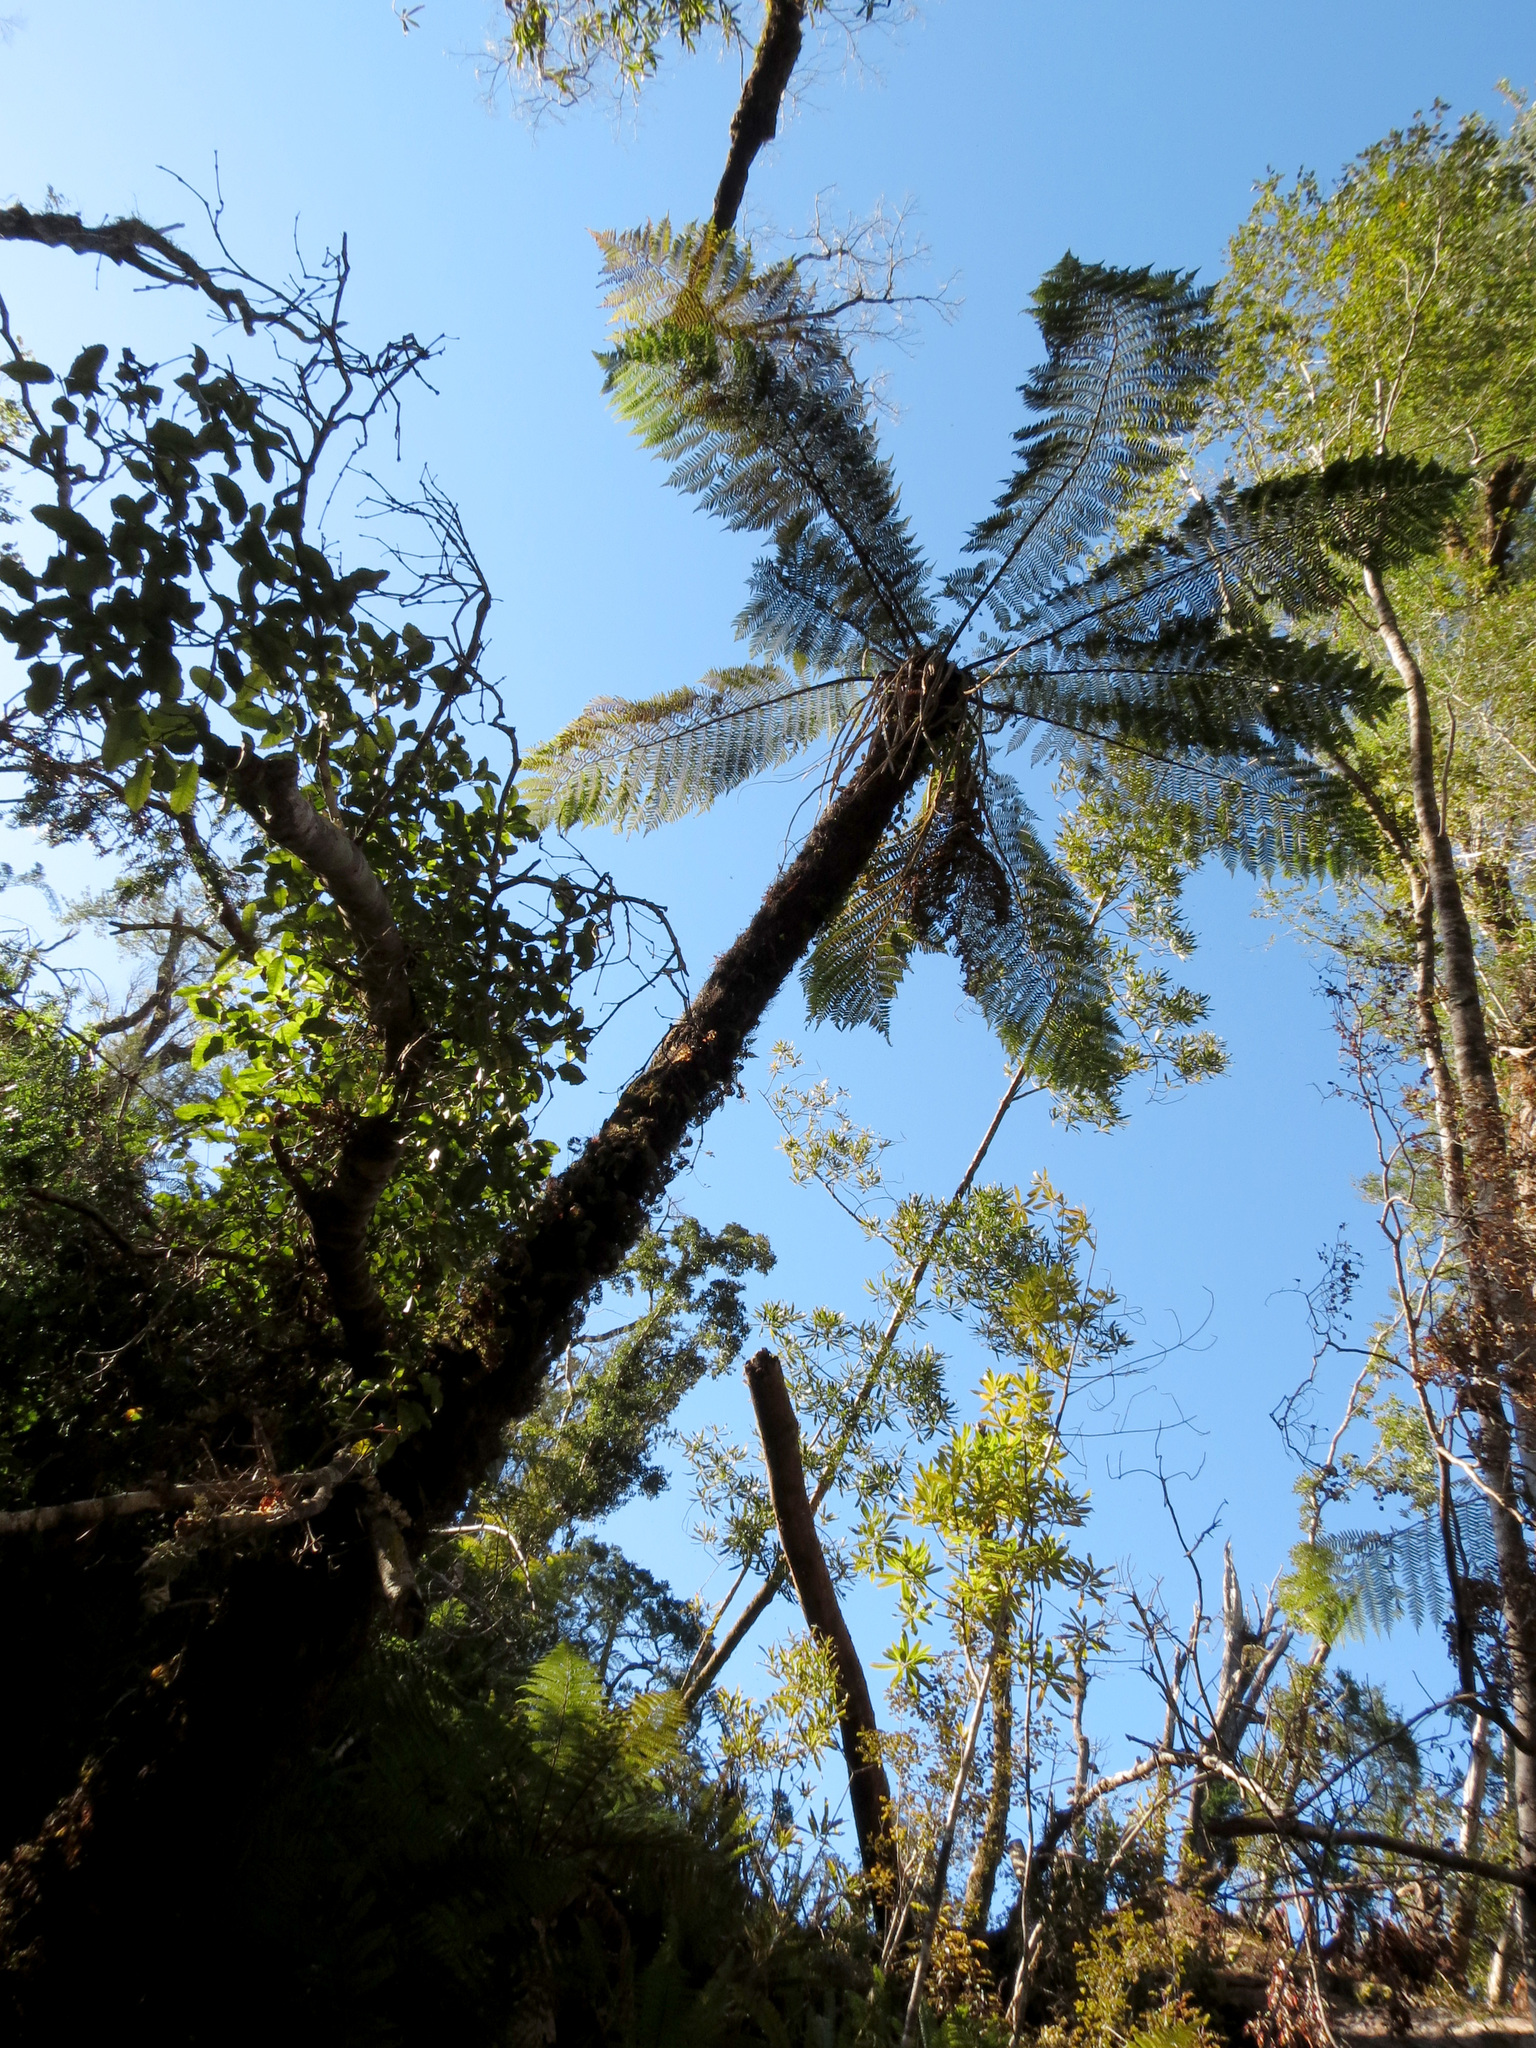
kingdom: Plantae
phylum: Tracheophyta
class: Polypodiopsida
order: Cyatheales
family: Cyatheaceae
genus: Alsophila
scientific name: Alsophila smithii
